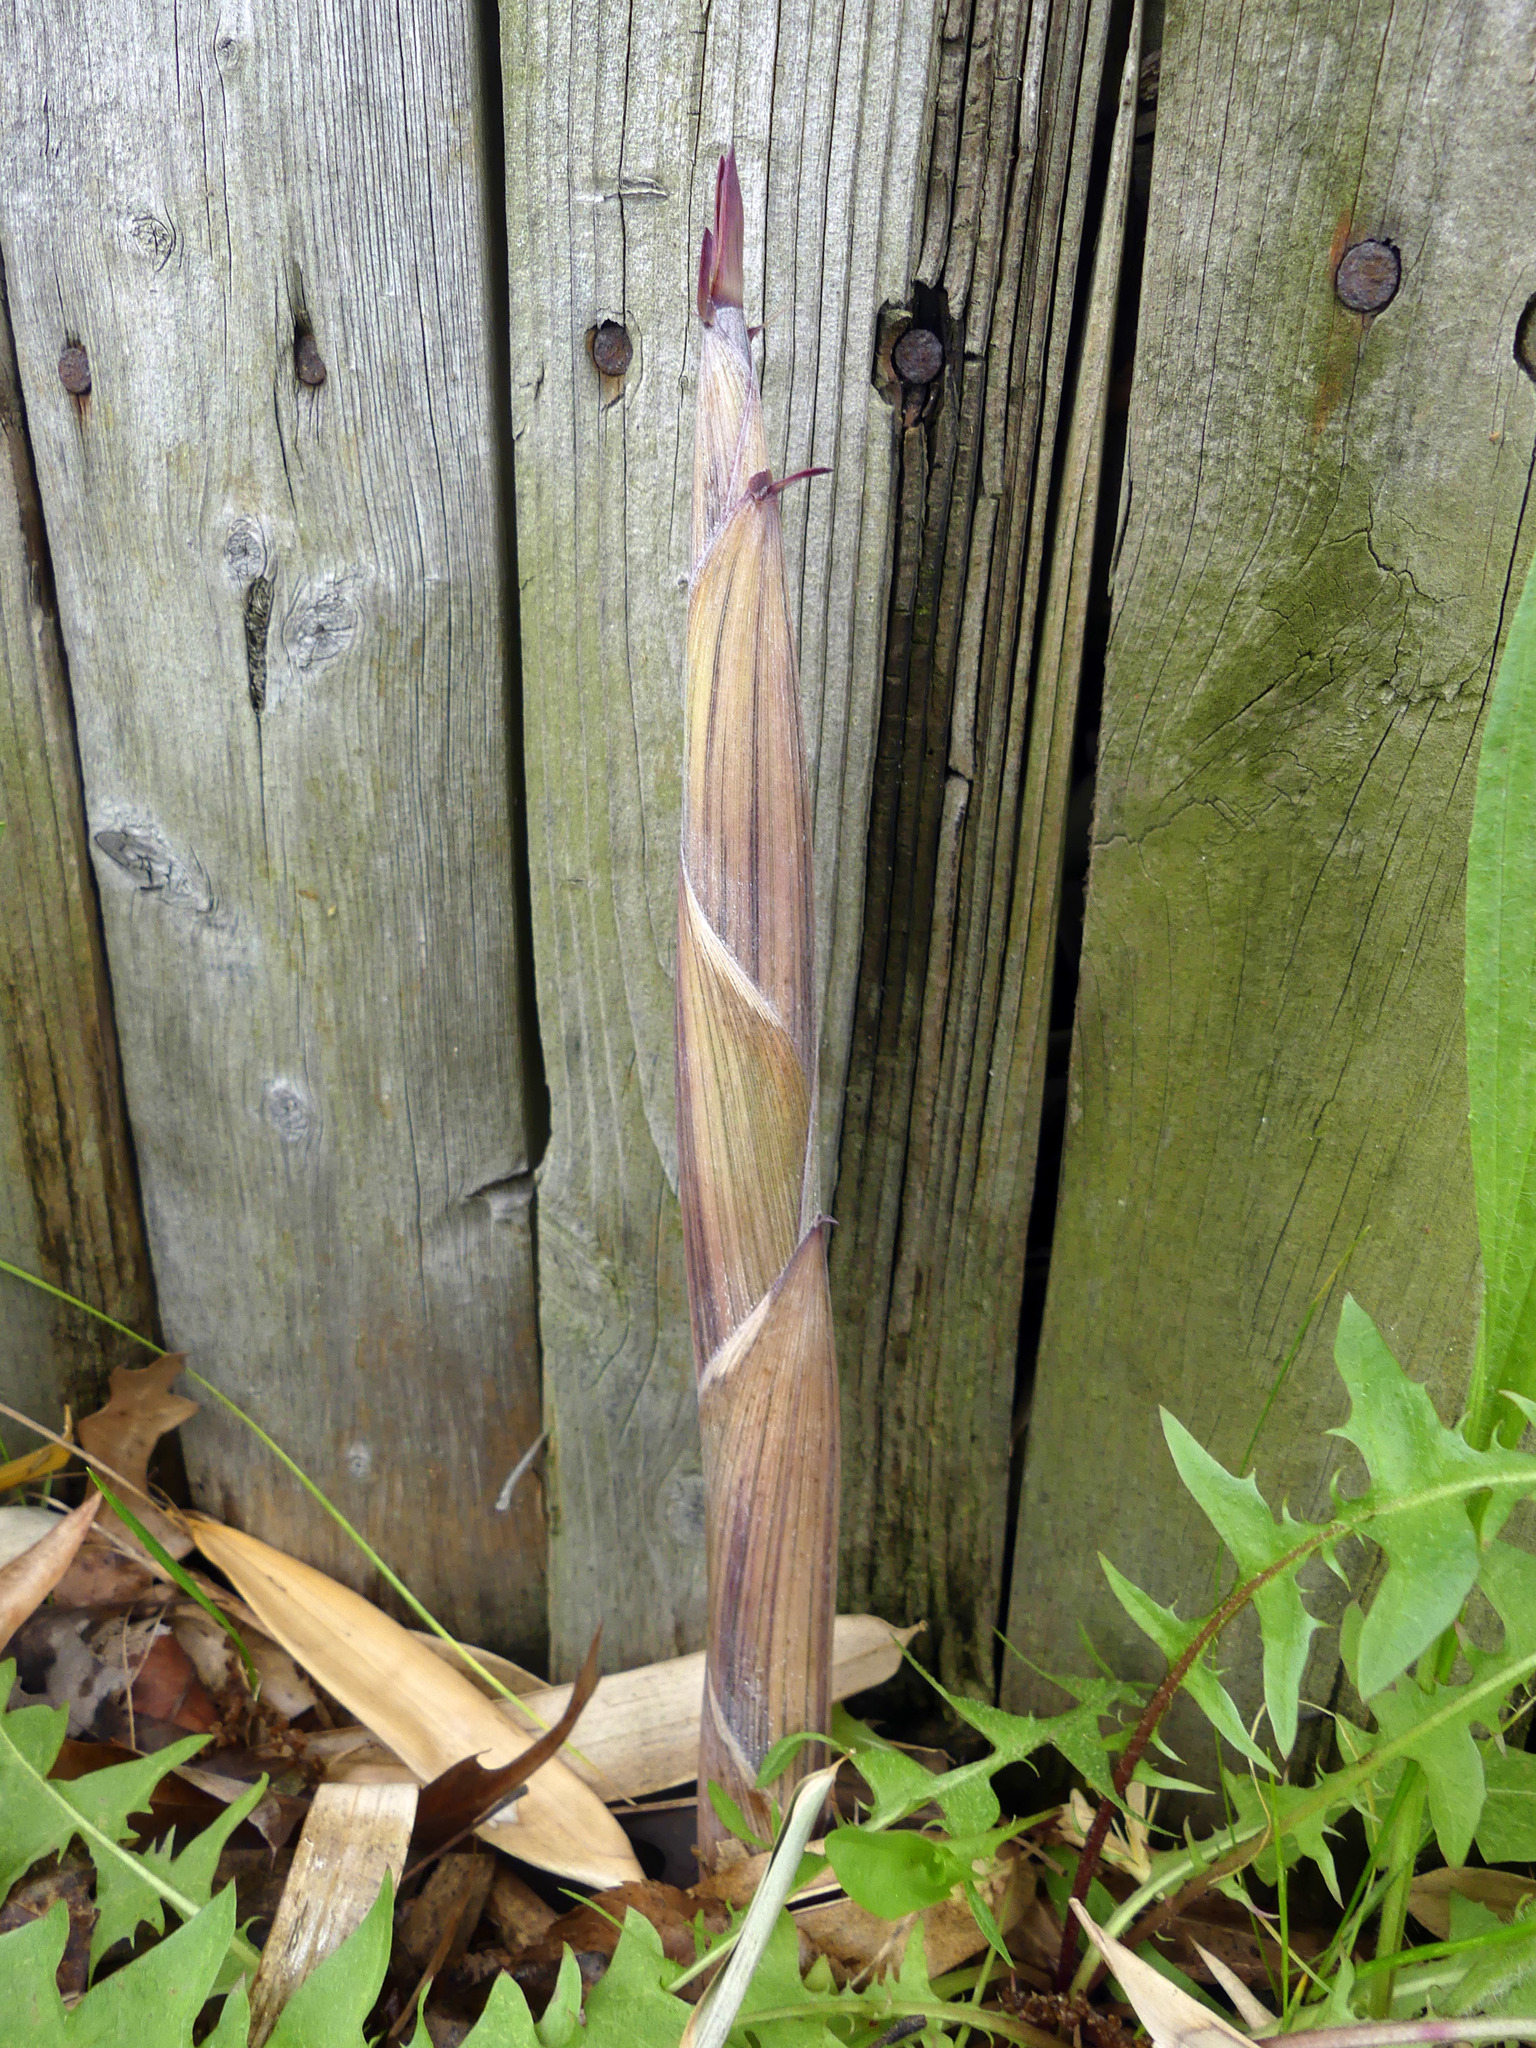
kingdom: Plantae
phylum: Tracheophyta
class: Liliopsida
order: Poales
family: Poaceae
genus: Phyllostachys
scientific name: Phyllostachys aureosulcata
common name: Yellow groove bamboo
